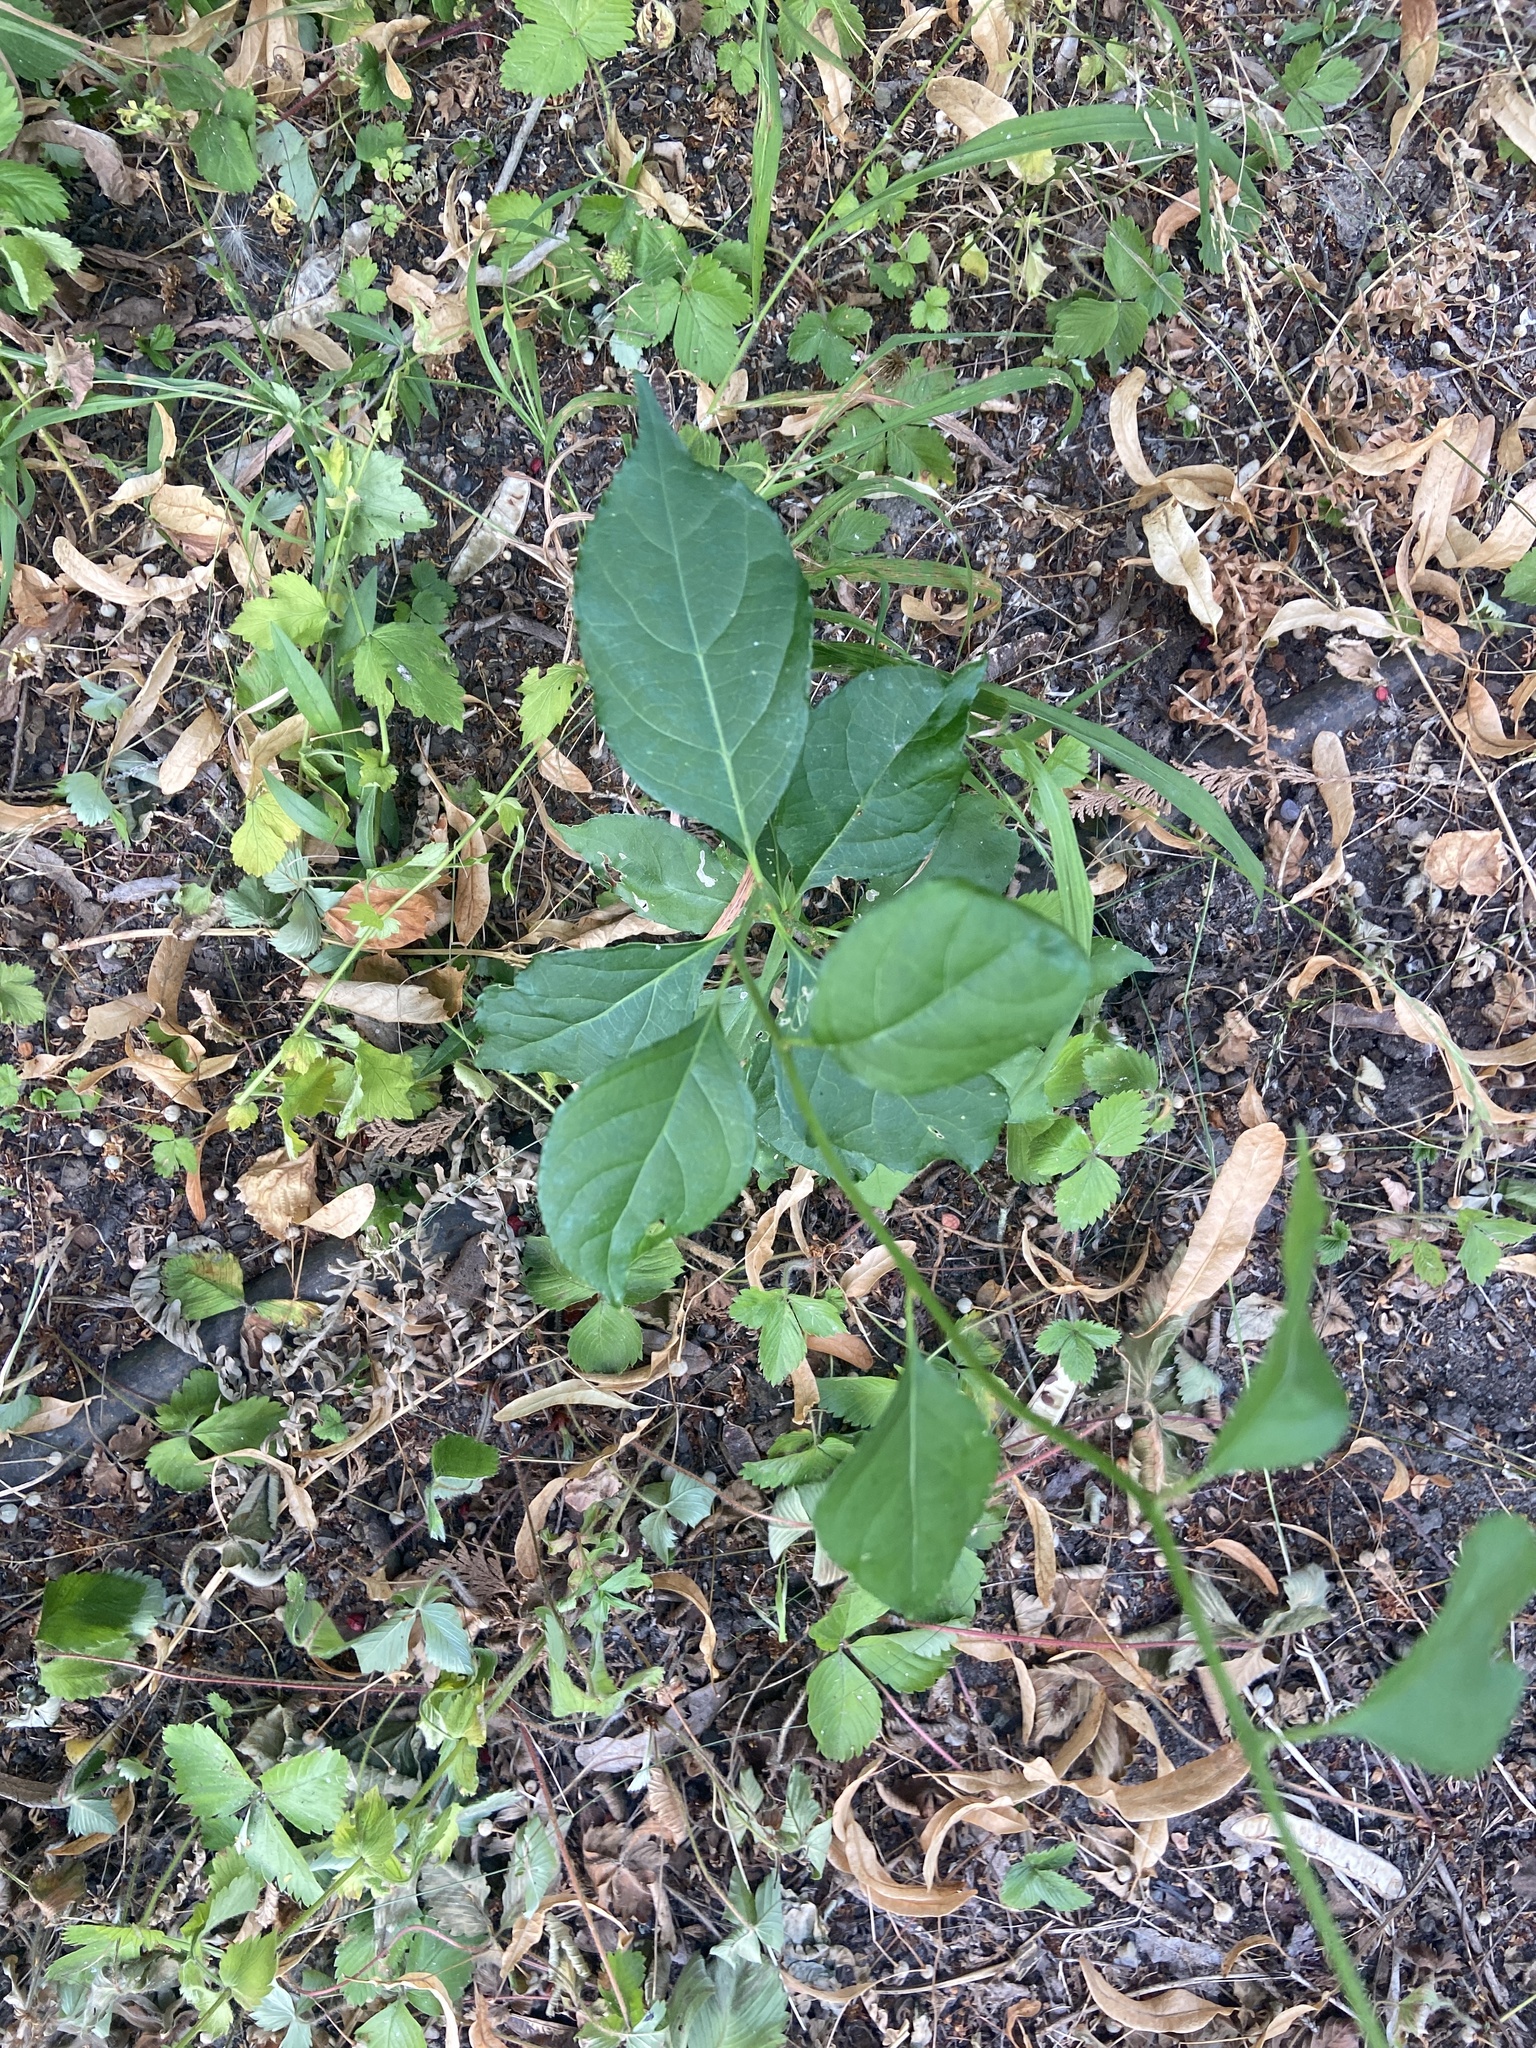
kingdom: Plantae
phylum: Tracheophyta
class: Magnoliopsida
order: Celastrales
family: Celastraceae
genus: Celastrus
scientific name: Celastrus orbiculatus
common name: Oriental bittersweet
